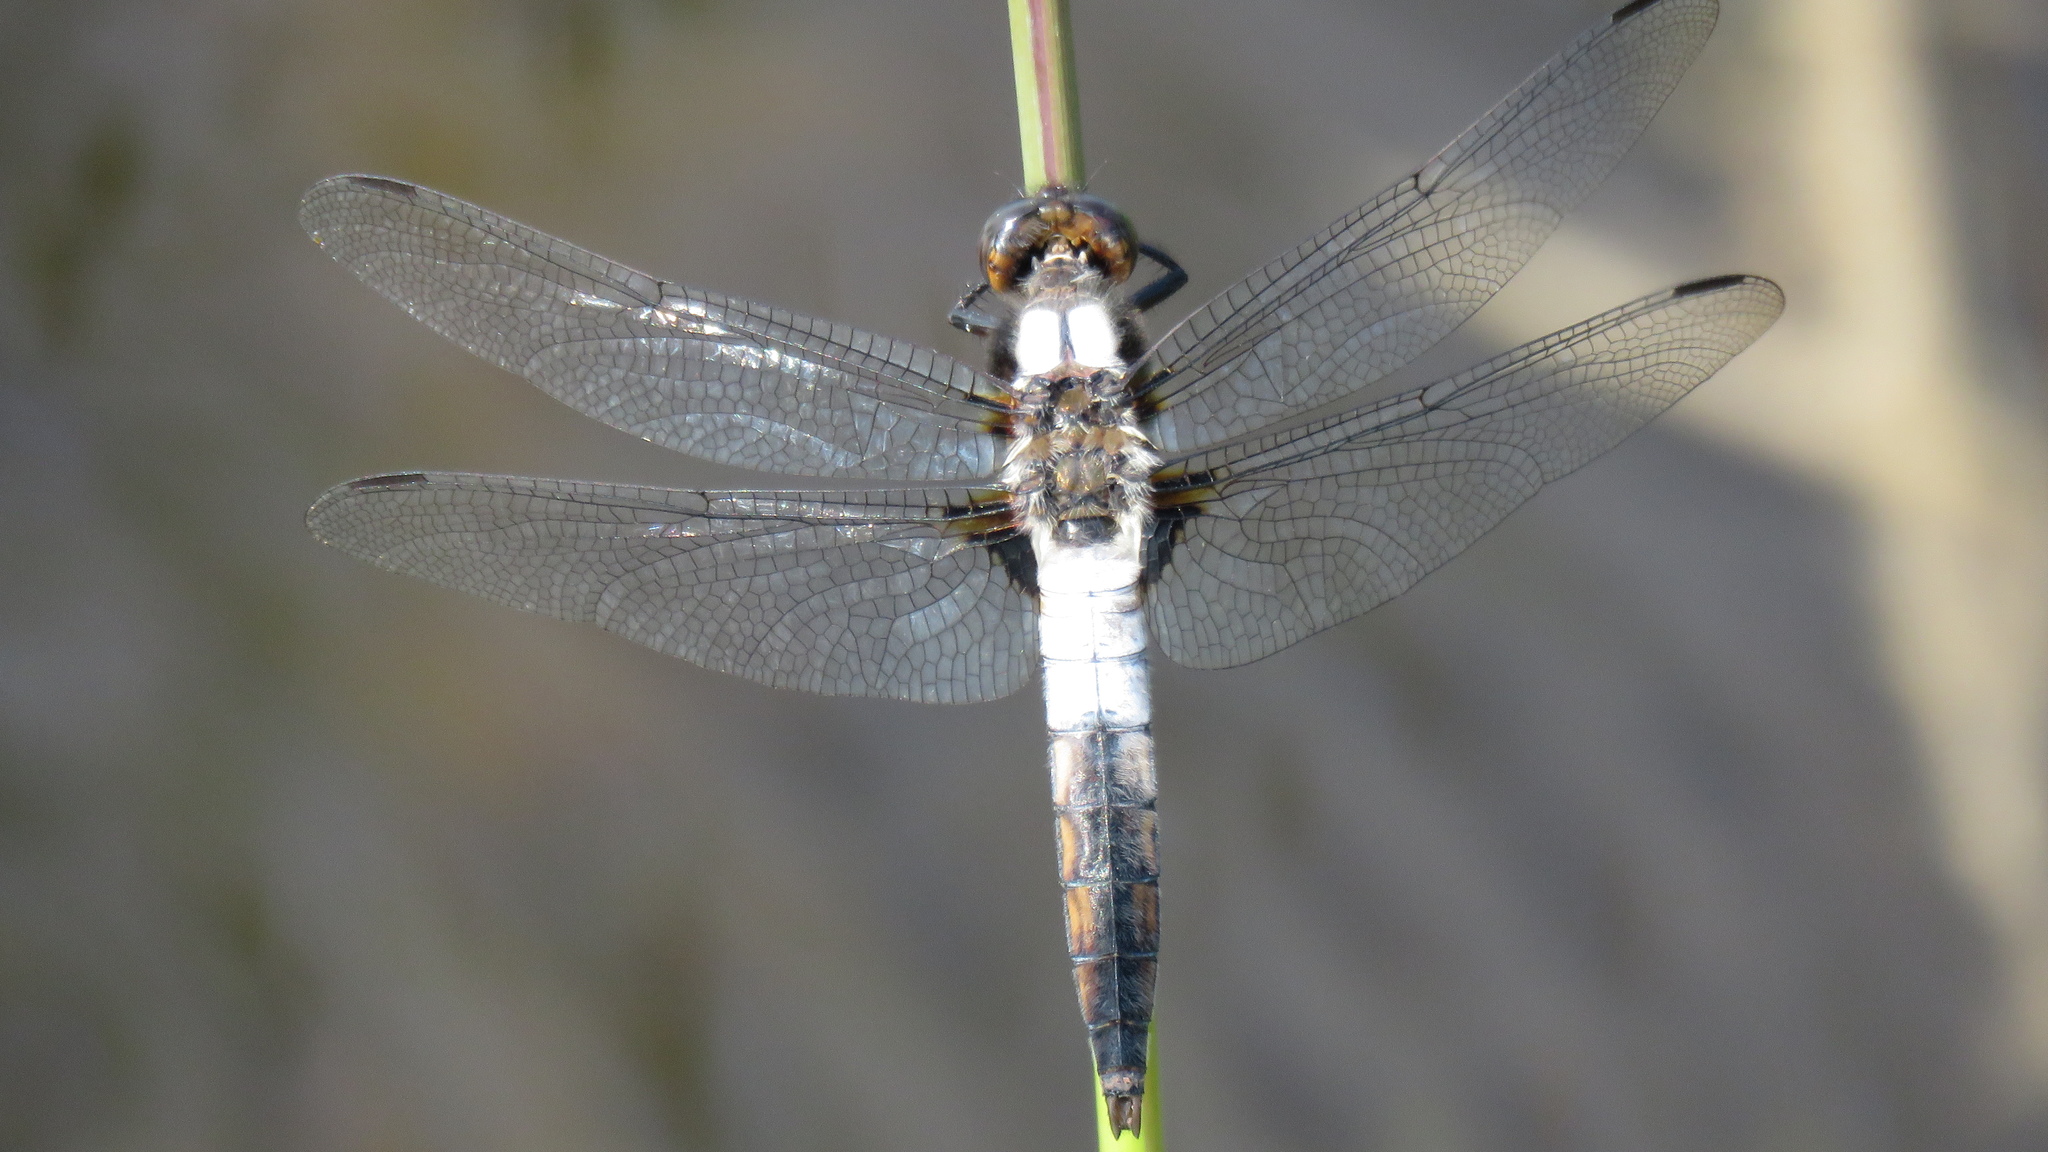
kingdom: Animalia
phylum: Arthropoda
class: Insecta
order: Odonata
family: Libellulidae
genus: Ladona
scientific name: Ladona julia
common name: Chalk-fronted corporal
